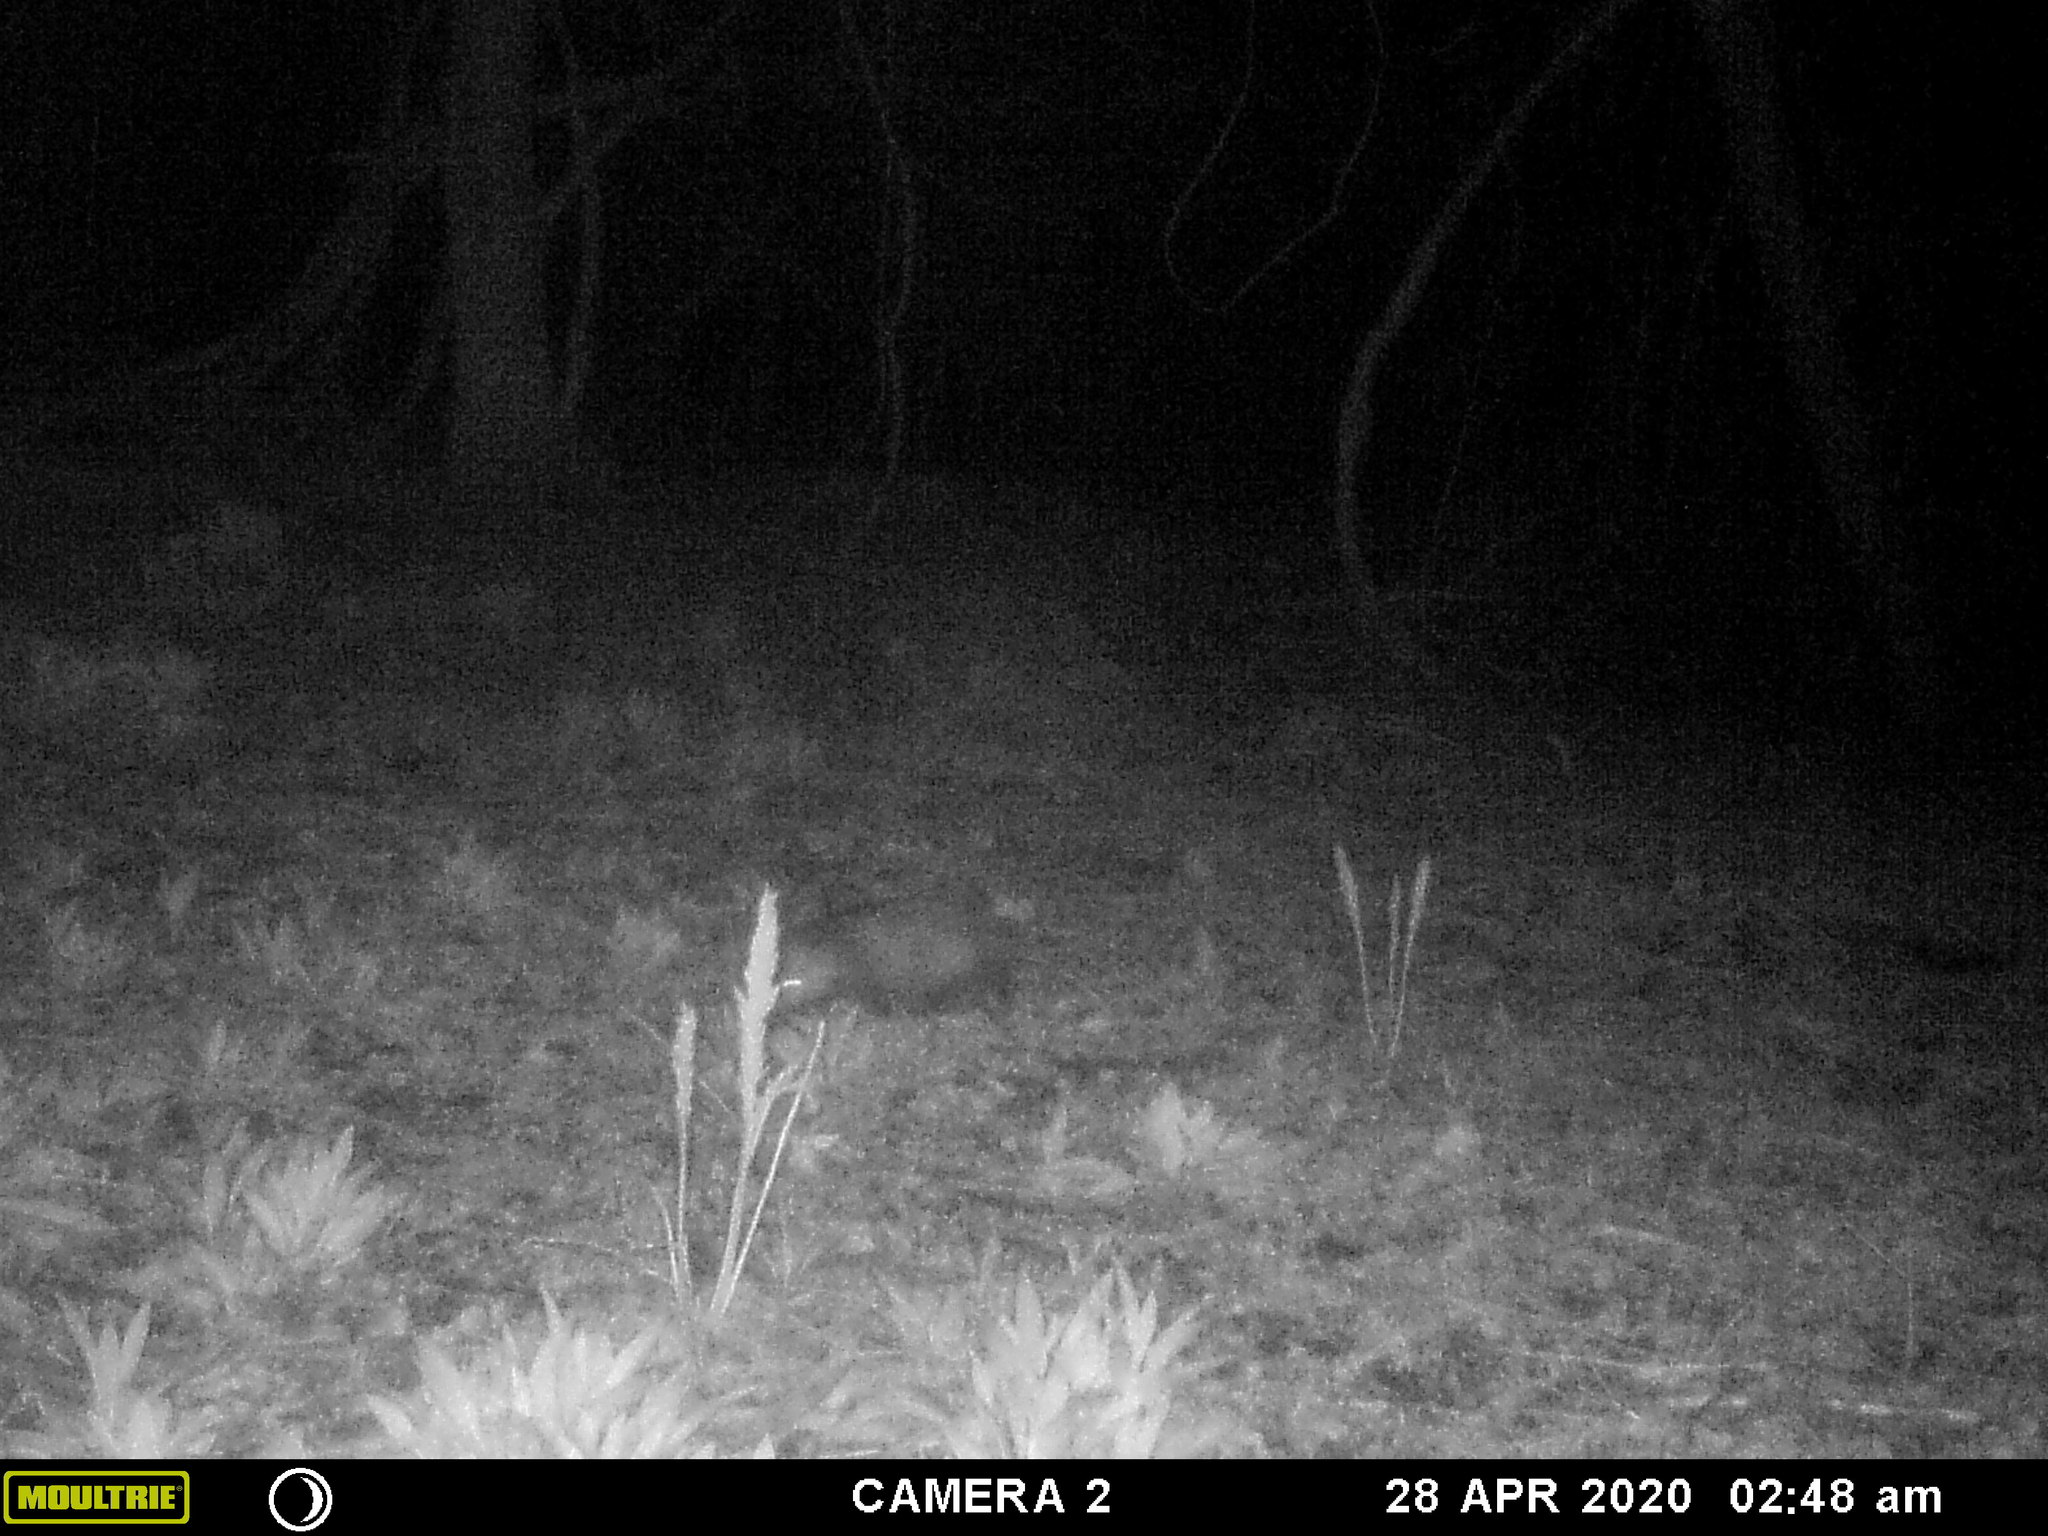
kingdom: Animalia
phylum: Chordata
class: Mammalia
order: Didelphimorphia
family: Didelphidae
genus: Didelphis
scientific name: Didelphis virginiana
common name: Virginia opossum
